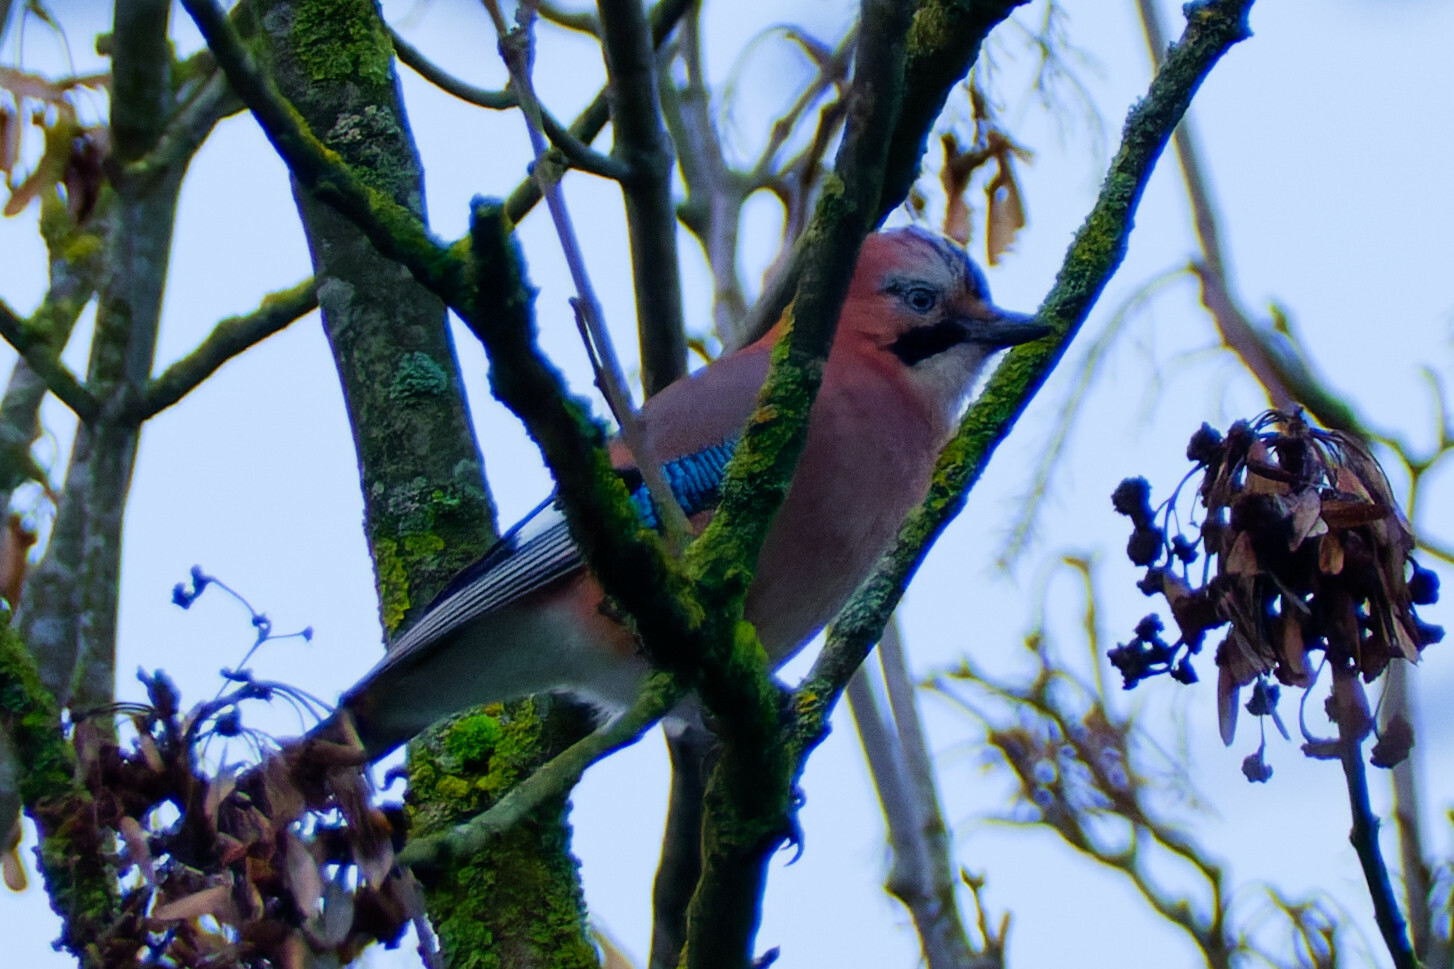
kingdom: Animalia
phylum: Chordata
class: Aves
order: Passeriformes
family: Corvidae
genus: Garrulus
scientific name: Garrulus glandarius
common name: Eurasian jay
